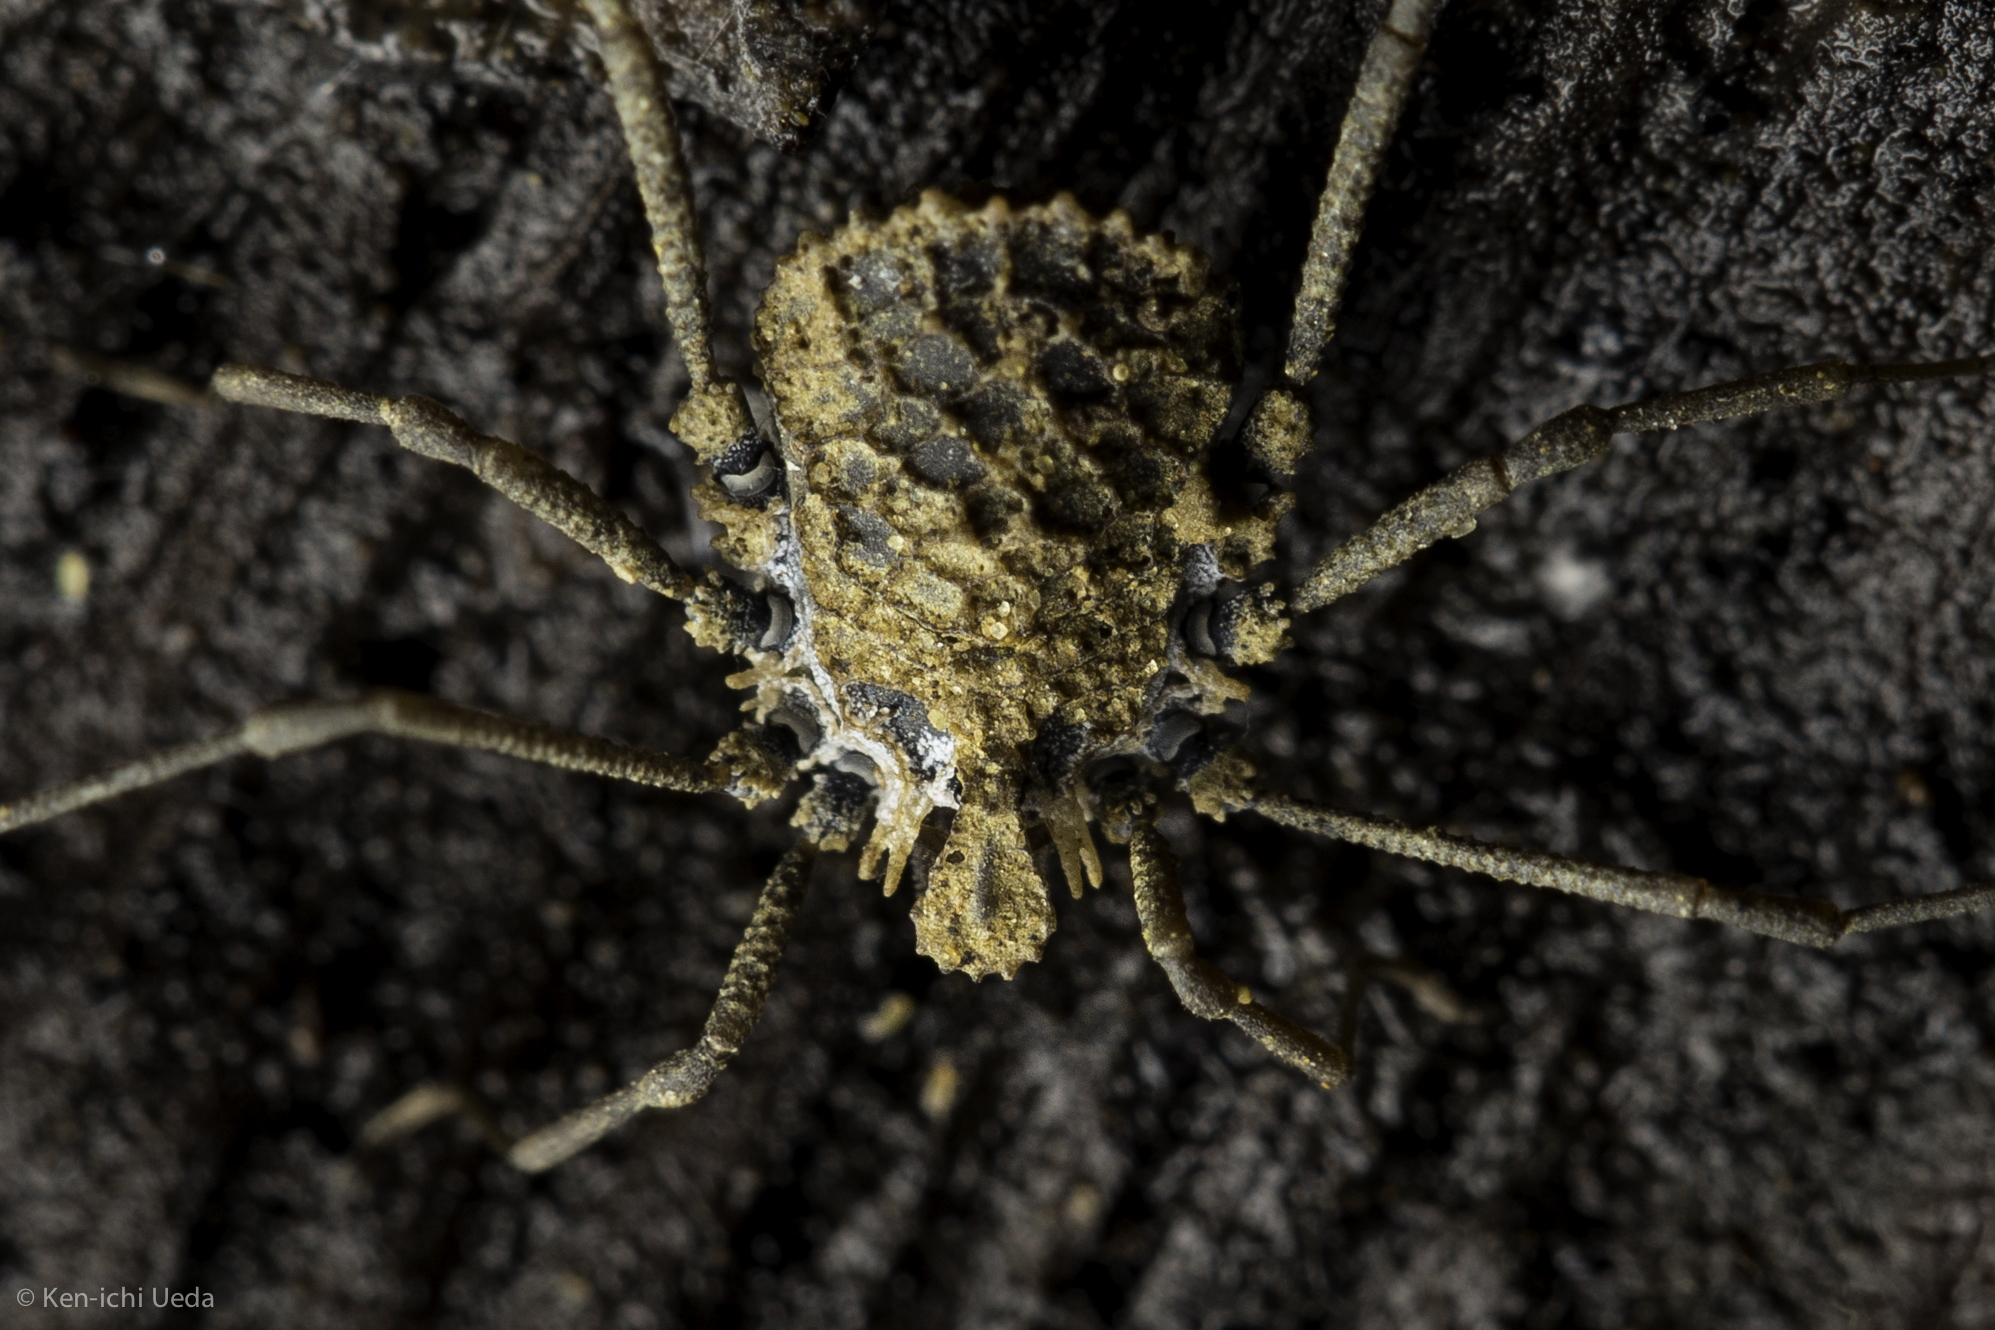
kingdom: Animalia
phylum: Arthropoda
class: Arachnida
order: Opiliones
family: Nemastomatidae
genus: Ortholasma
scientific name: Ortholasma rugosum
